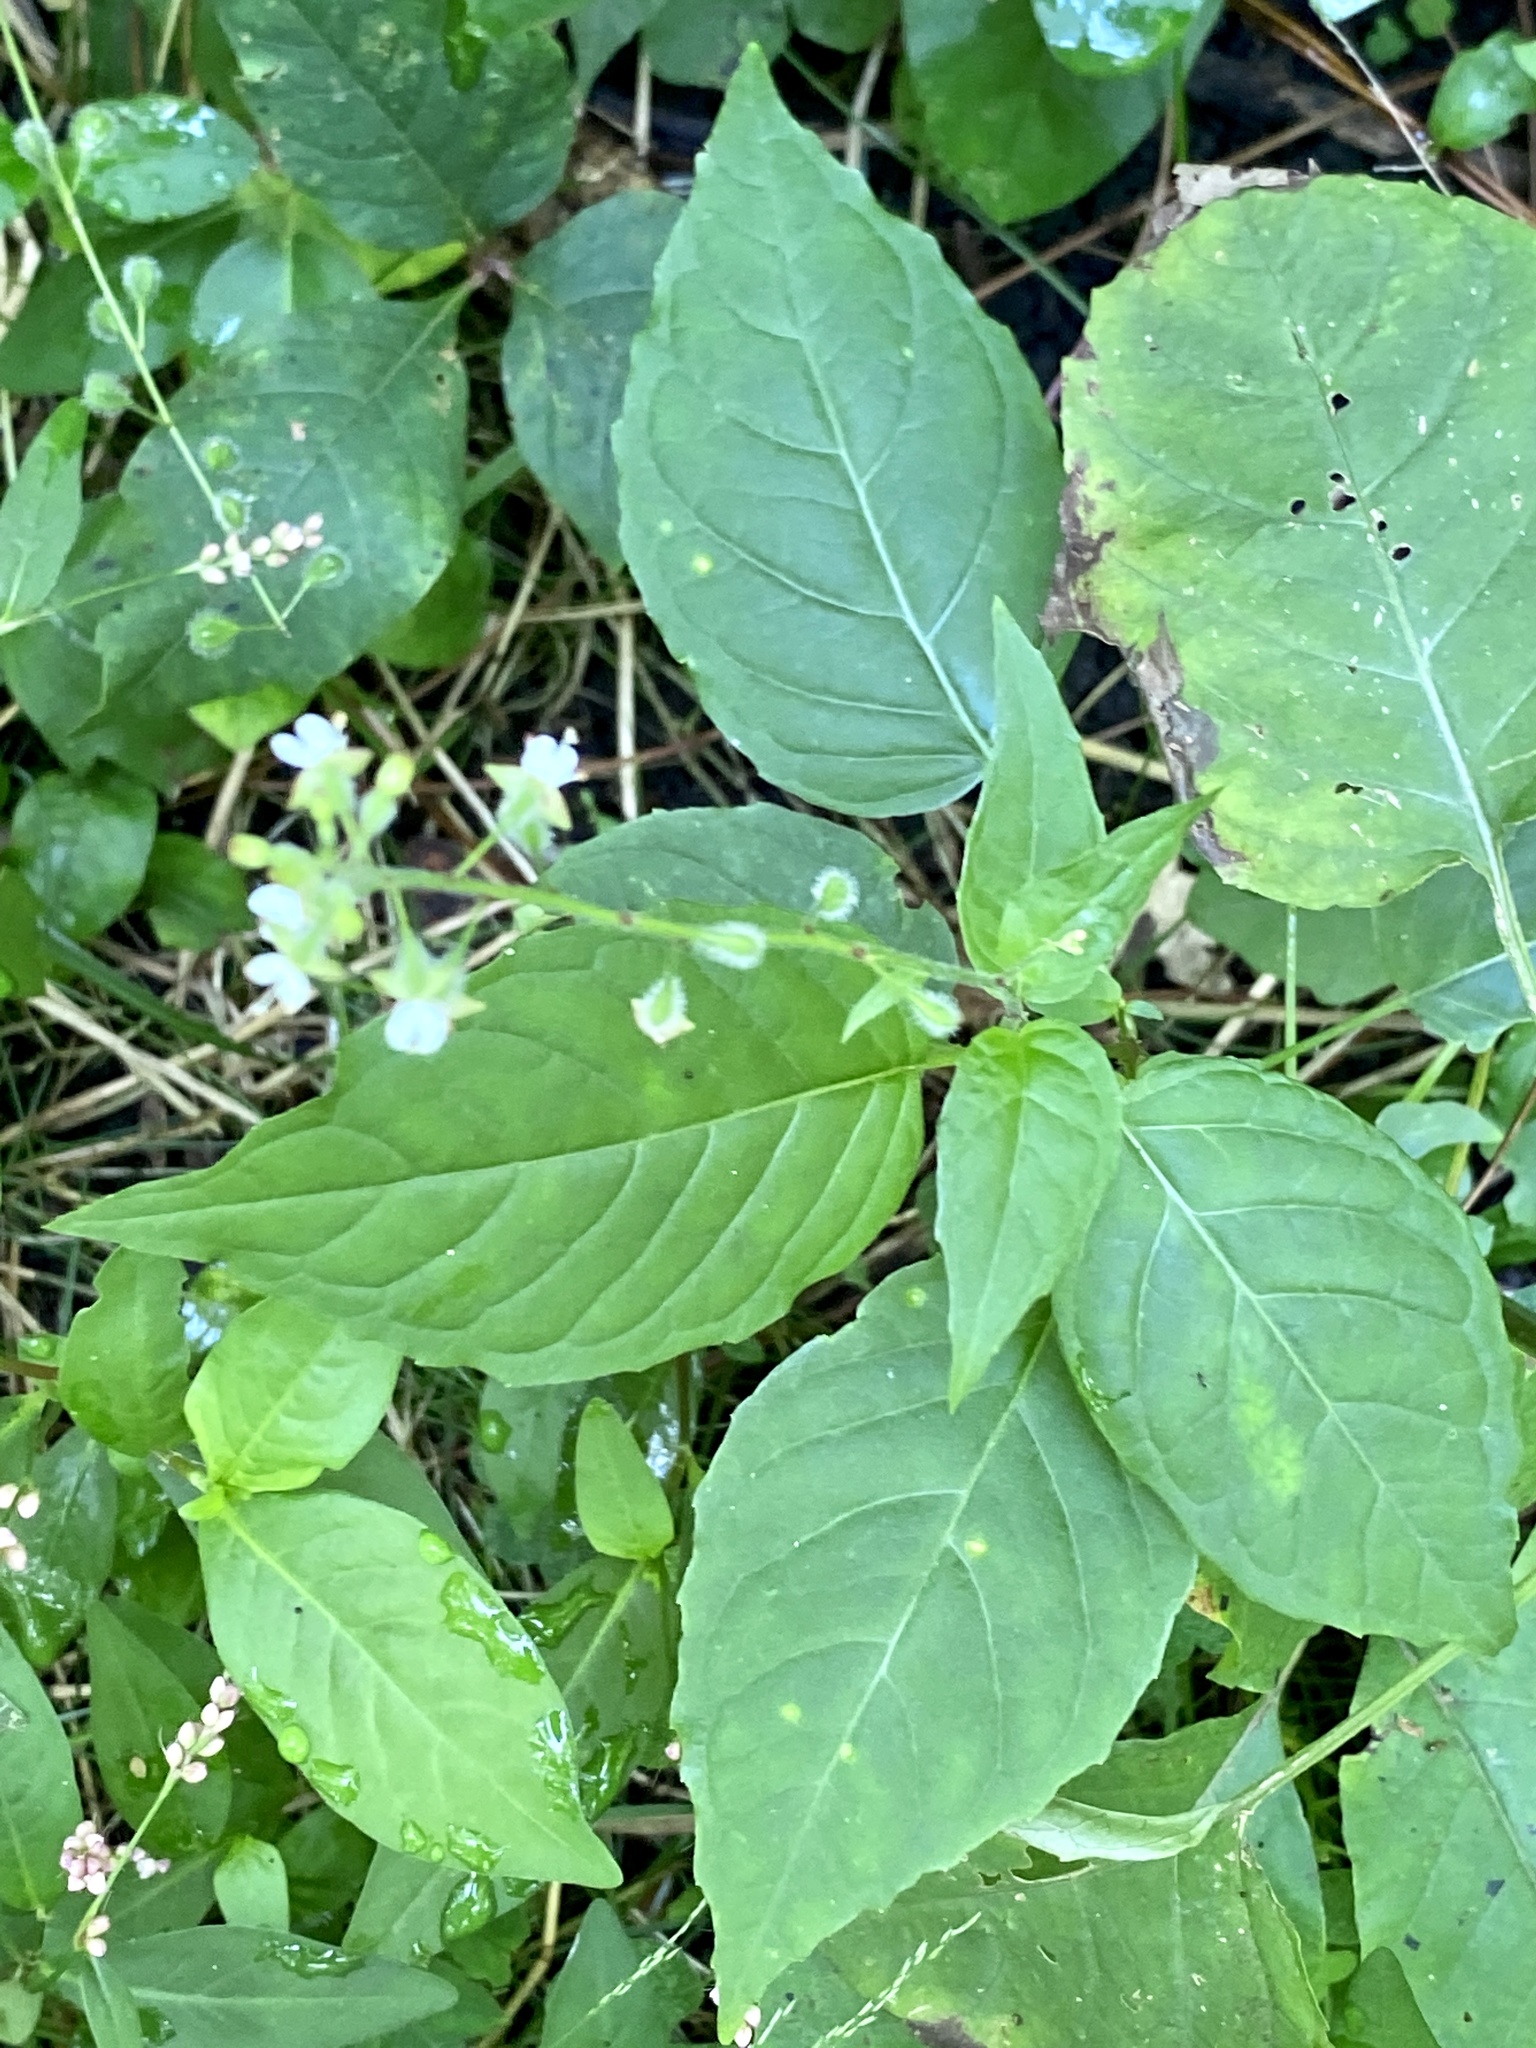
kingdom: Plantae
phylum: Tracheophyta
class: Magnoliopsida
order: Myrtales
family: Onagraceae
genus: Circaea
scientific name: Circaea canadensis
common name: Broad-leaved enchanter's nightshade
